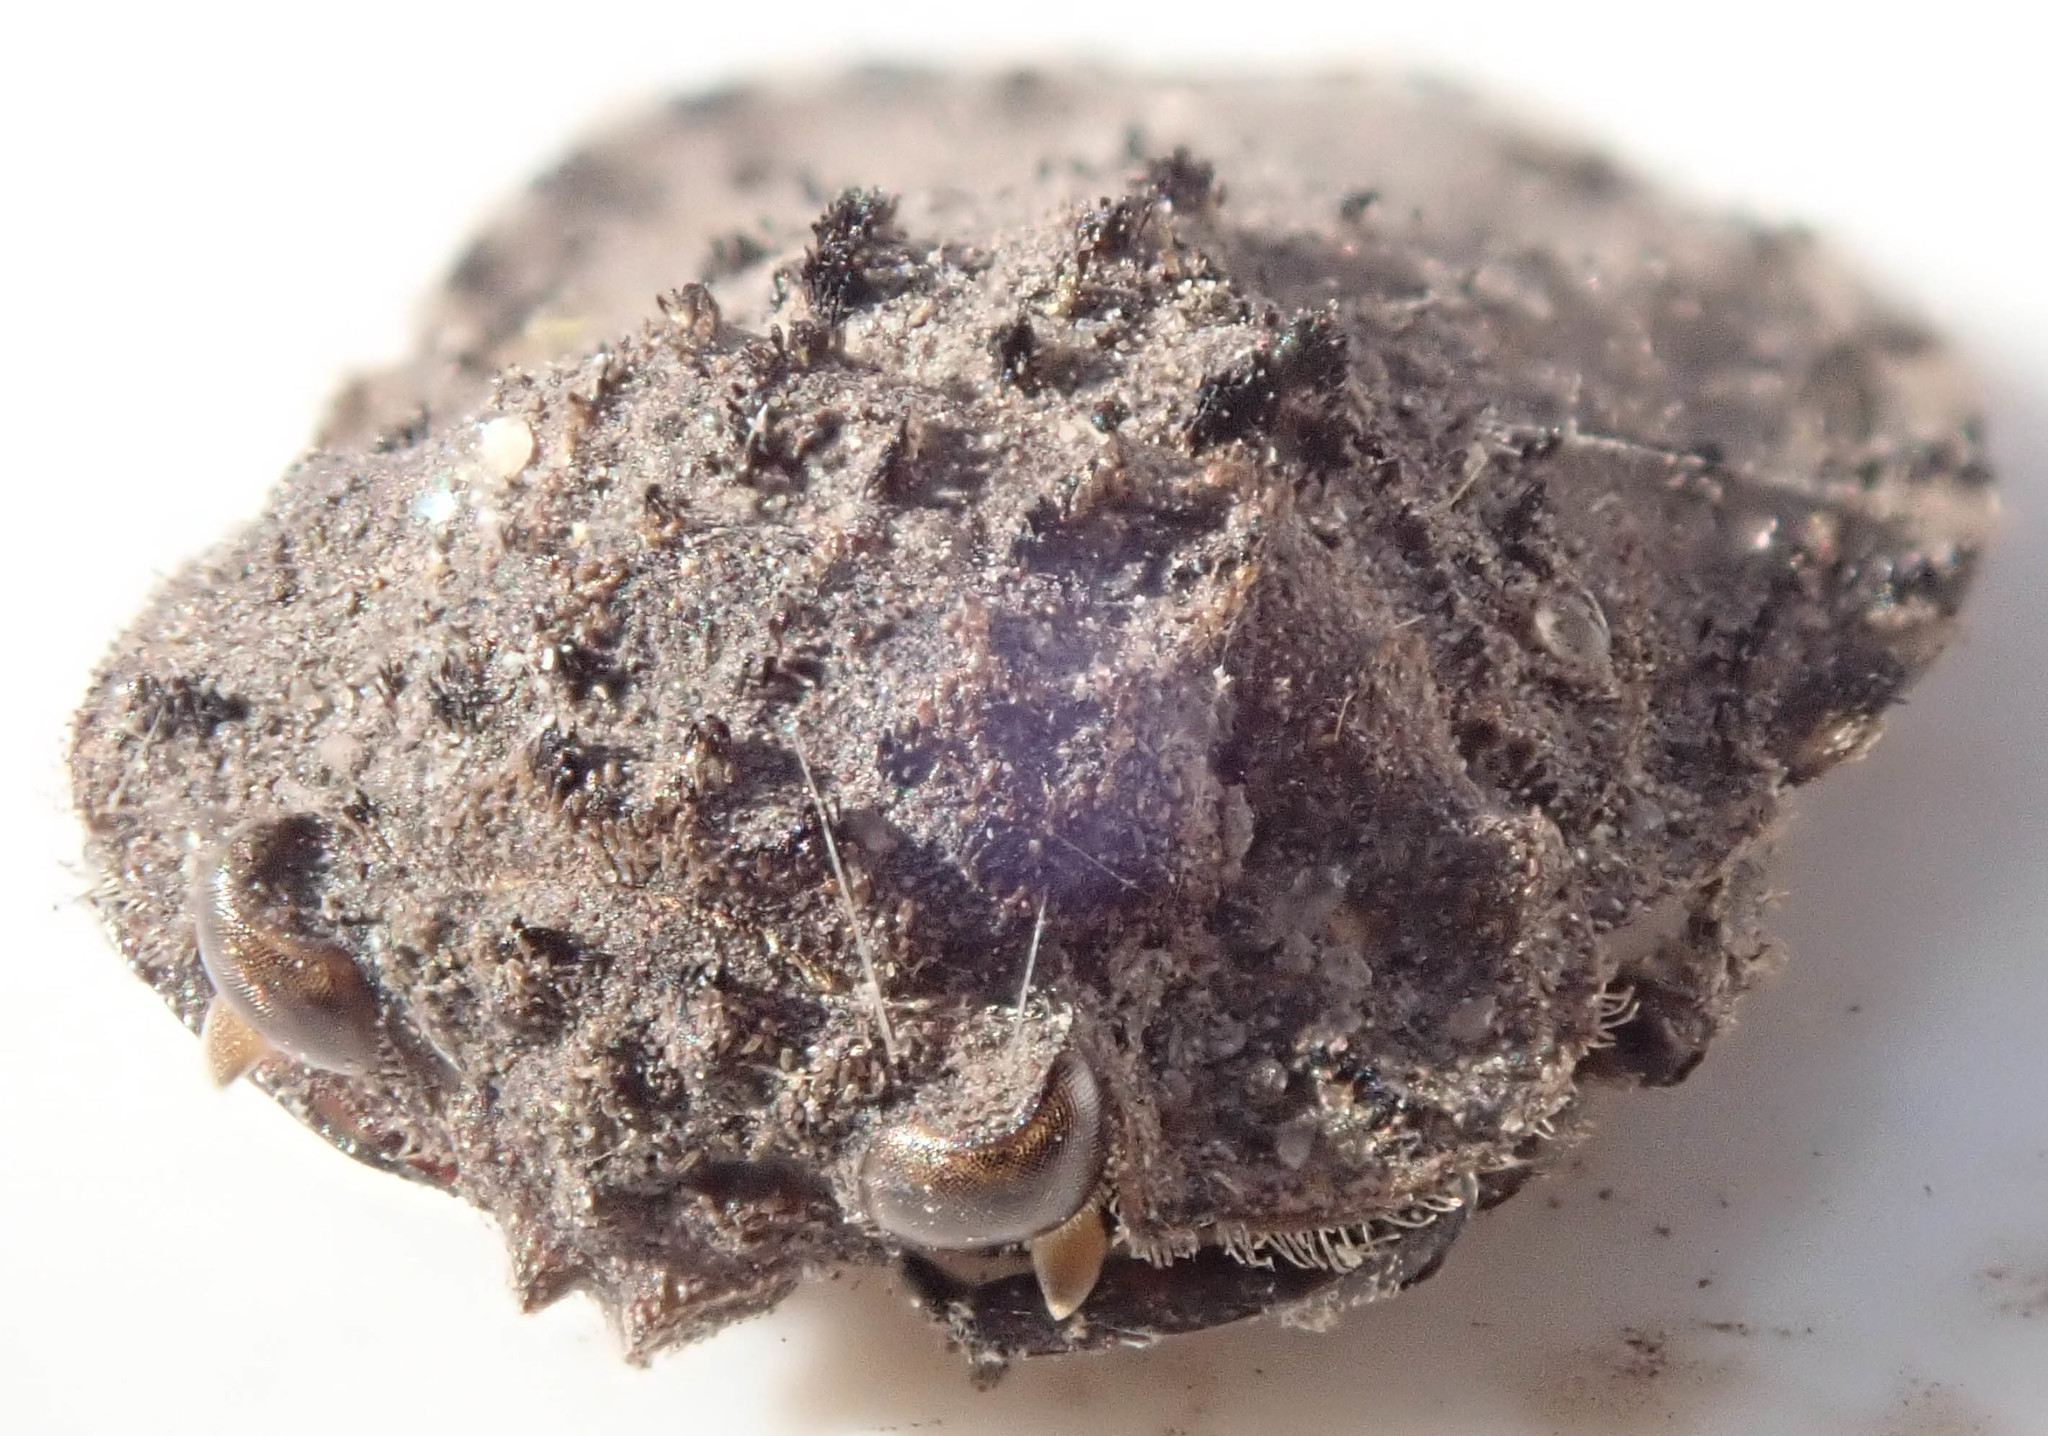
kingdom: Animalia
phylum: Arthropoda
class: Insecta
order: Hemiptera
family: Gelastocoridae
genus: Nerthra
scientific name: Nerthra grandicollis
